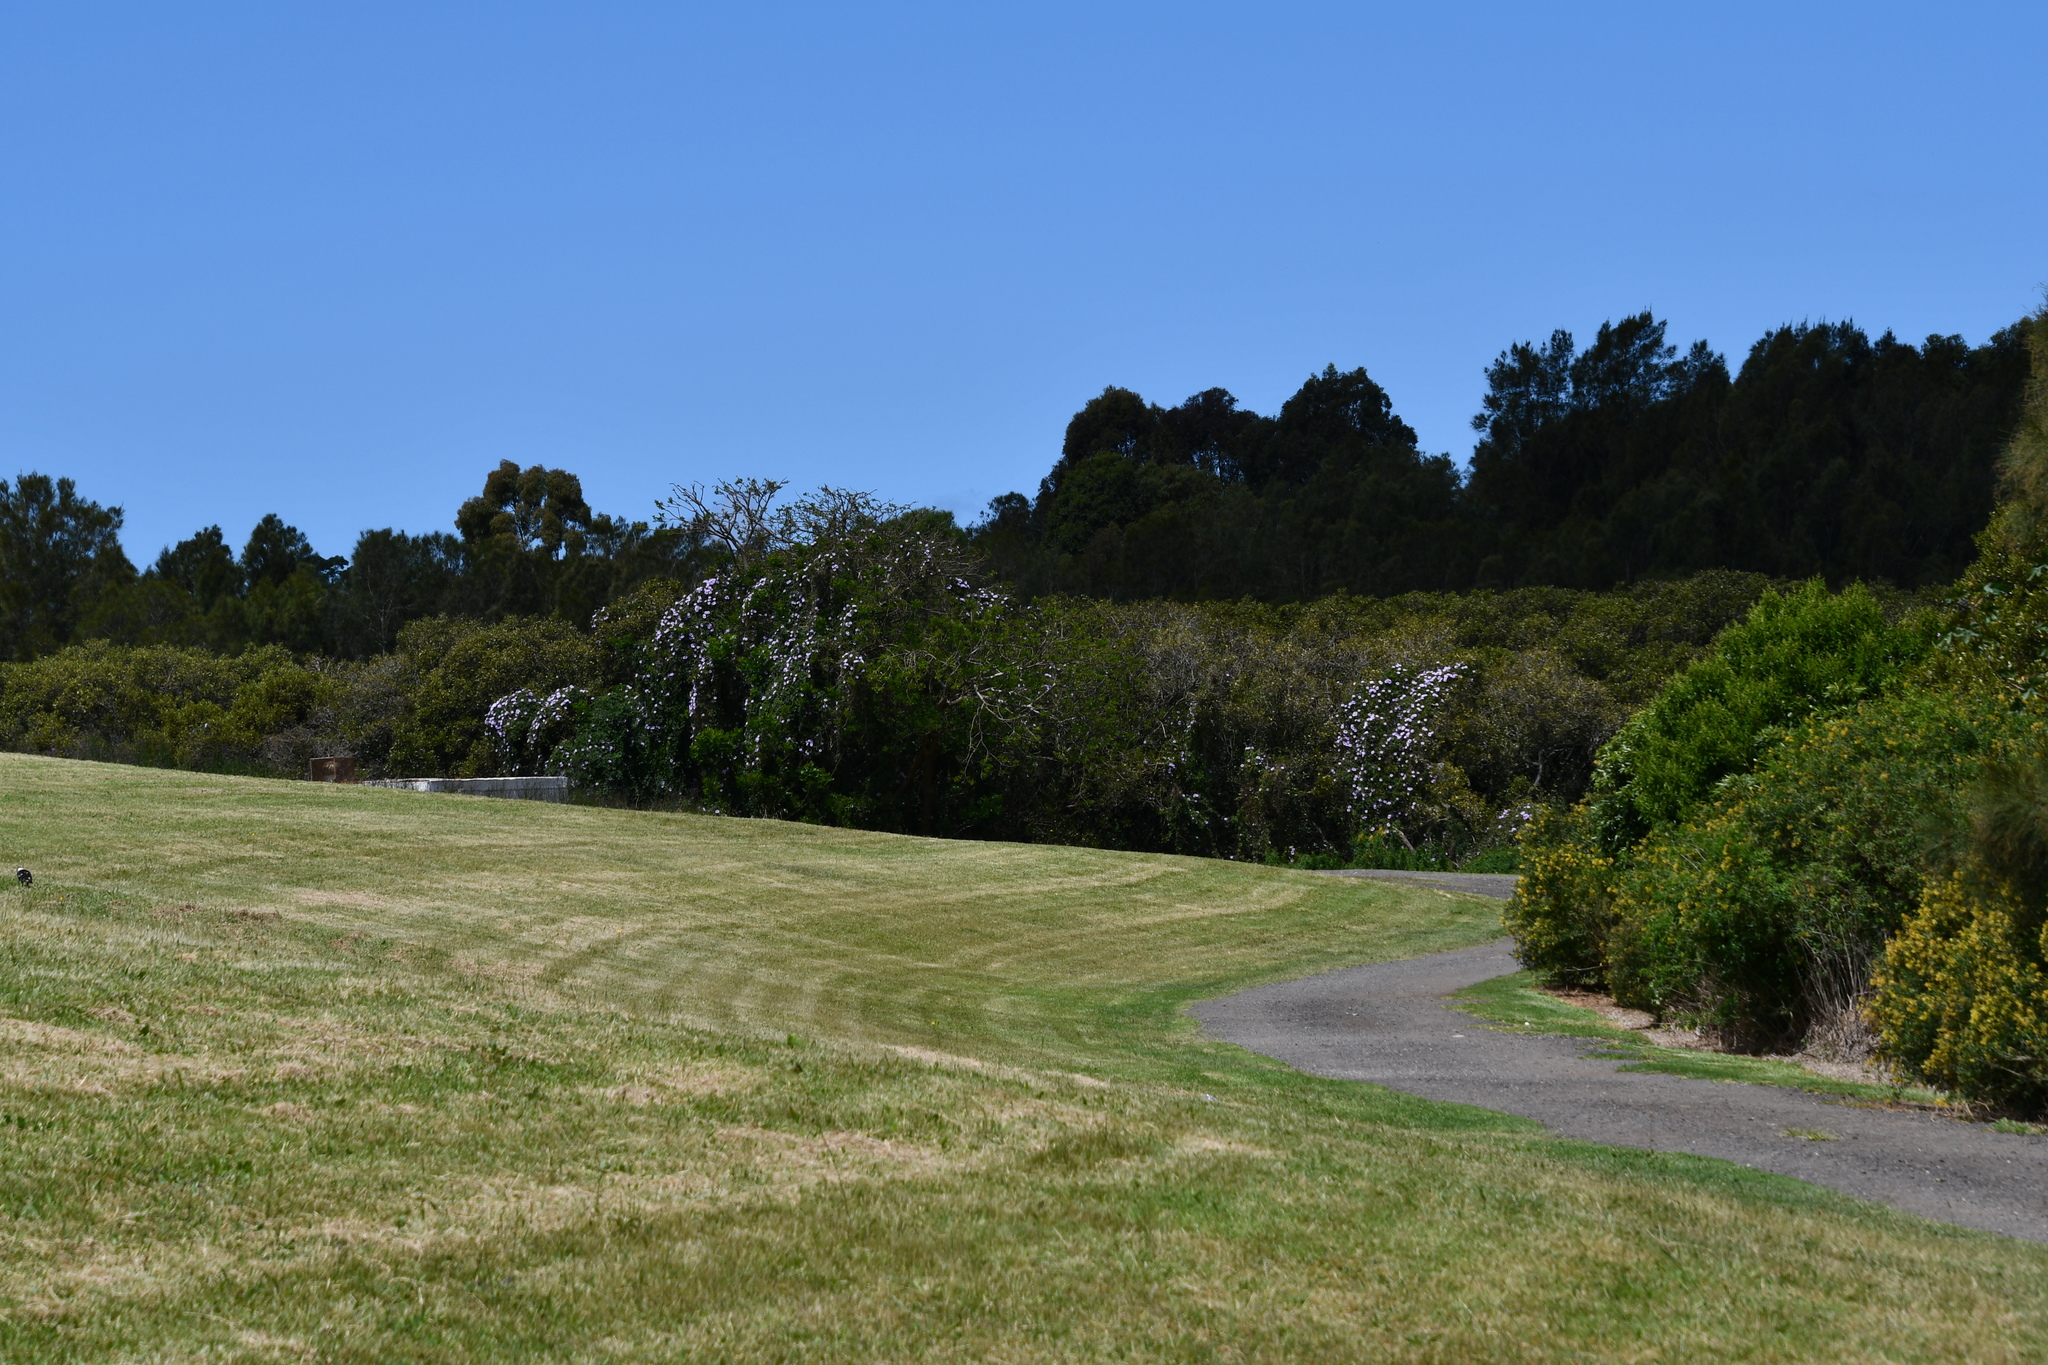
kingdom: Plantae
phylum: Tracheophyta
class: Magnoliopsida
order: Solanales
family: Convolvulaceae
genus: Ipomoea
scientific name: Ipomoea cairica
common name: Mile a minute vine
